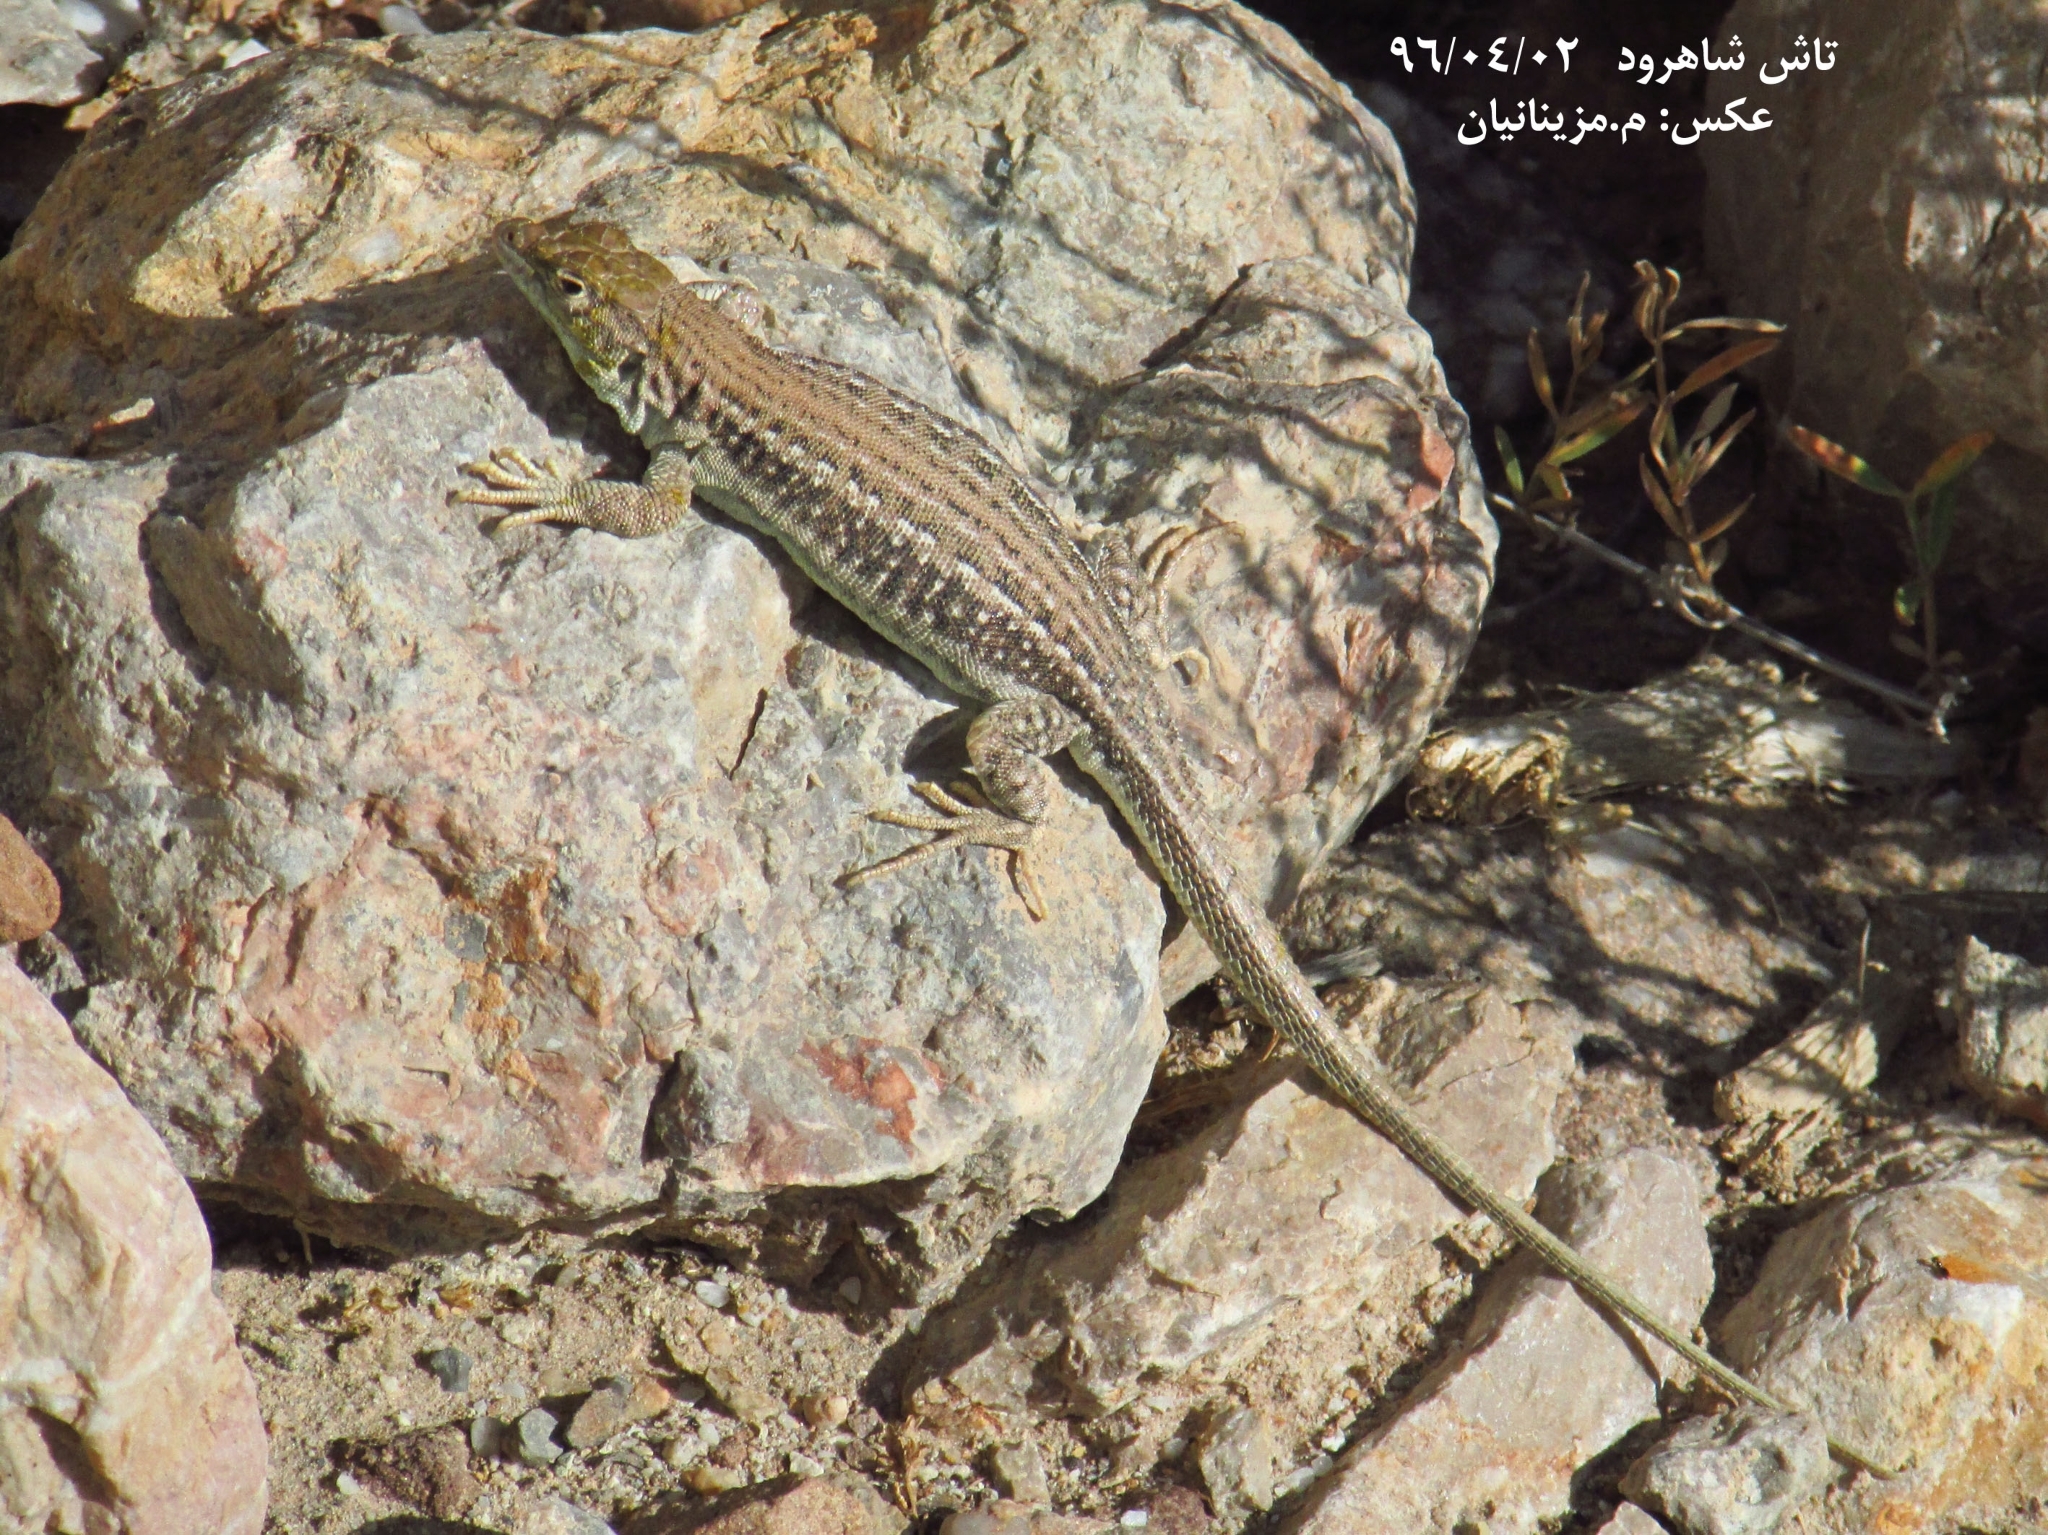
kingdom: Animalia
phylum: Chordata
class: Squamata
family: Lacertidae
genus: Eremias
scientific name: Eremias persica
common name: Aralo-caspian racerunner
